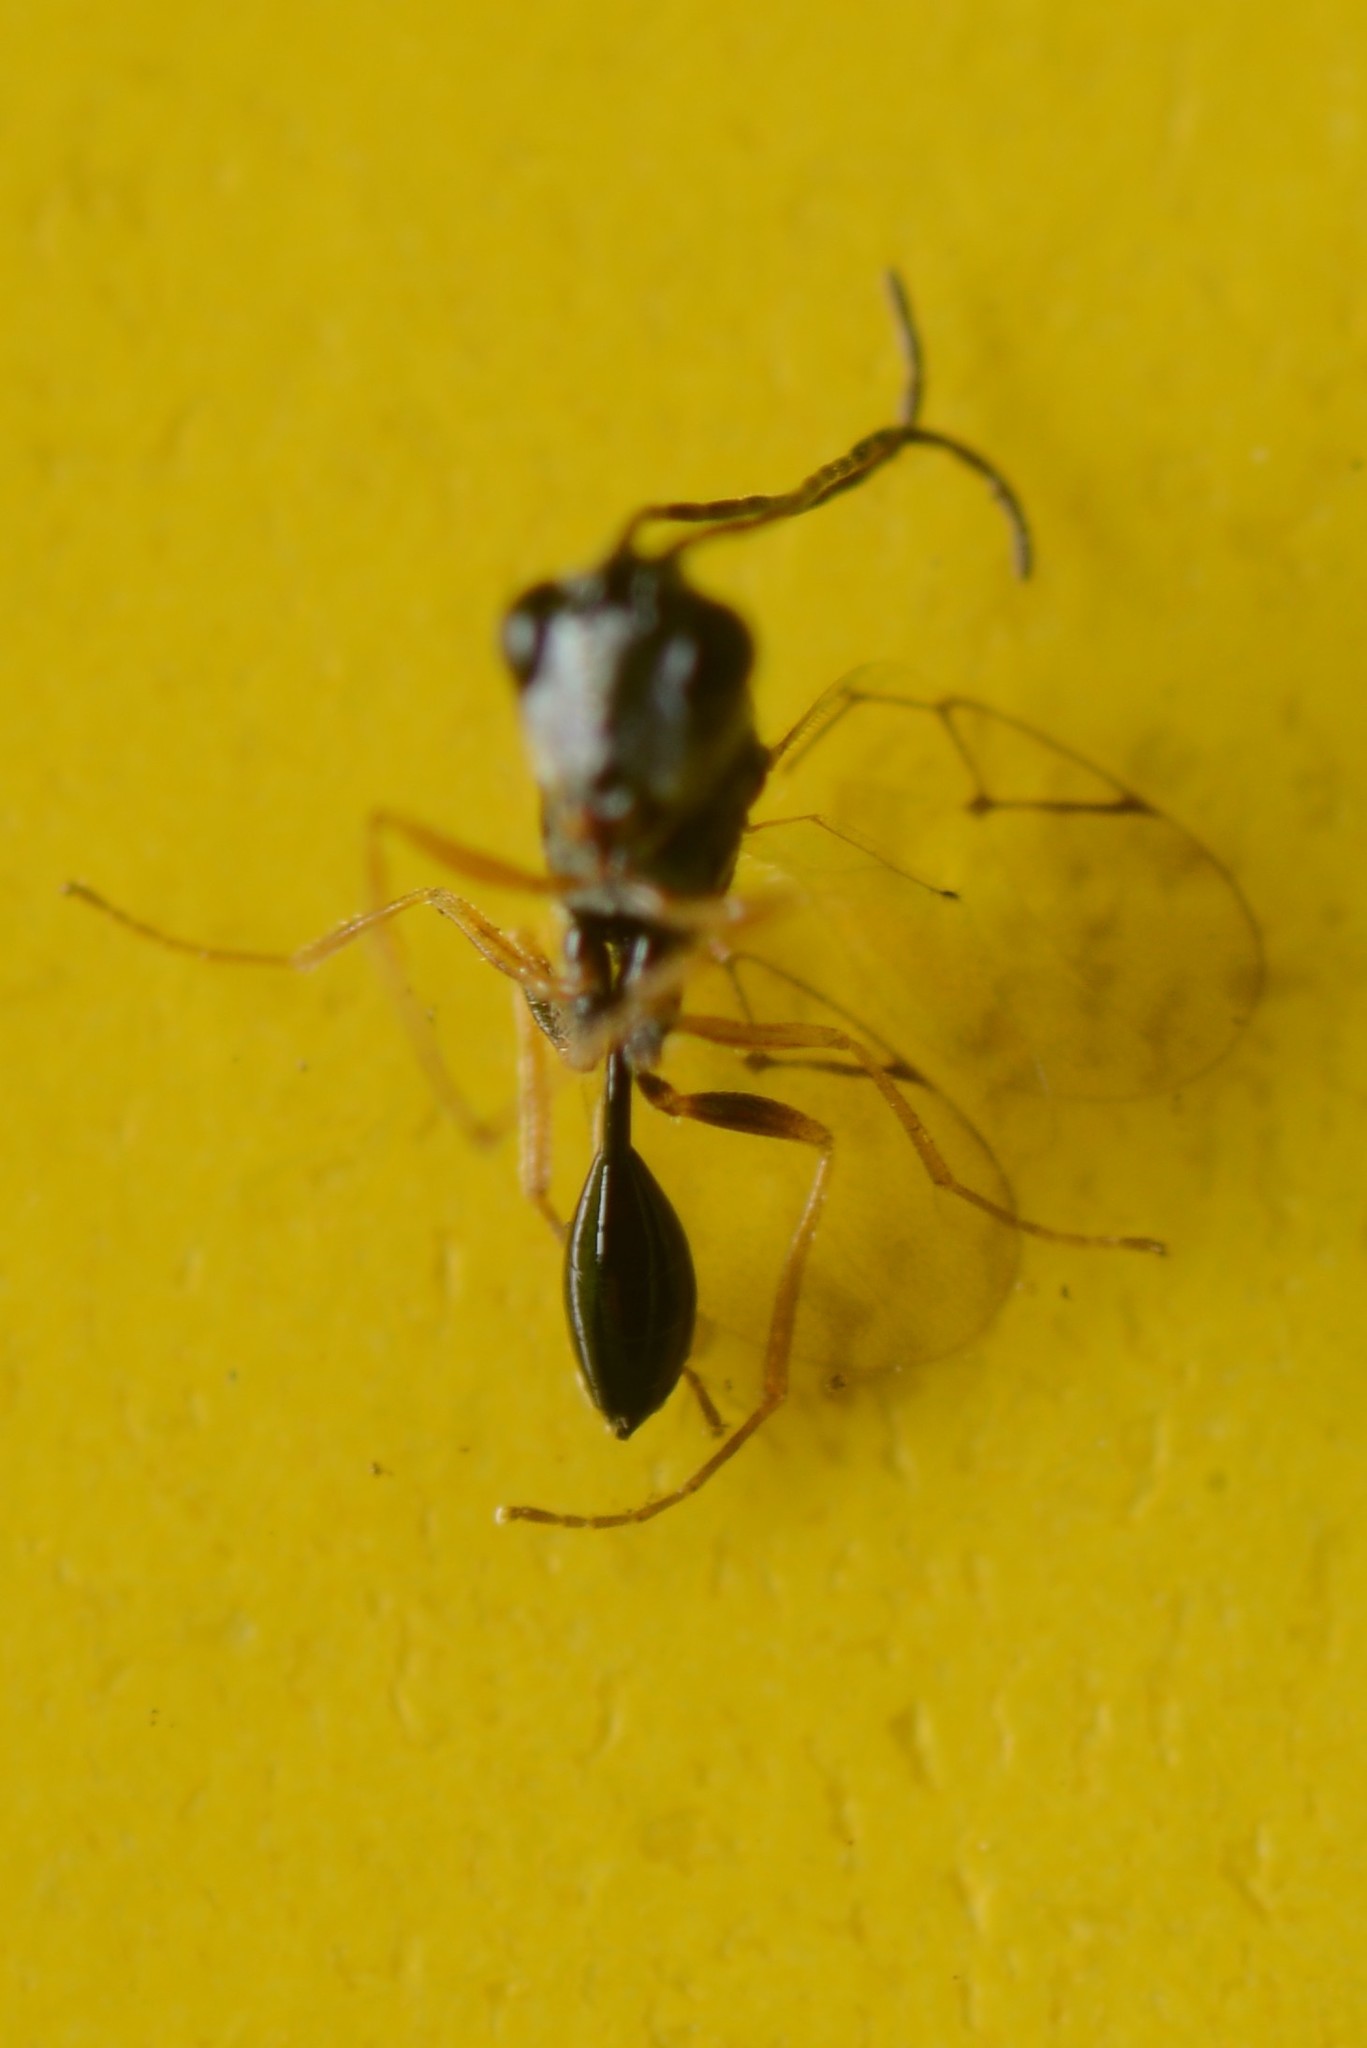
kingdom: Animalia
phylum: Arthropoda
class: Insecta
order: Hymenoptera
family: Figitidae
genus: Anacharis
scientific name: Anacharis zealandica
